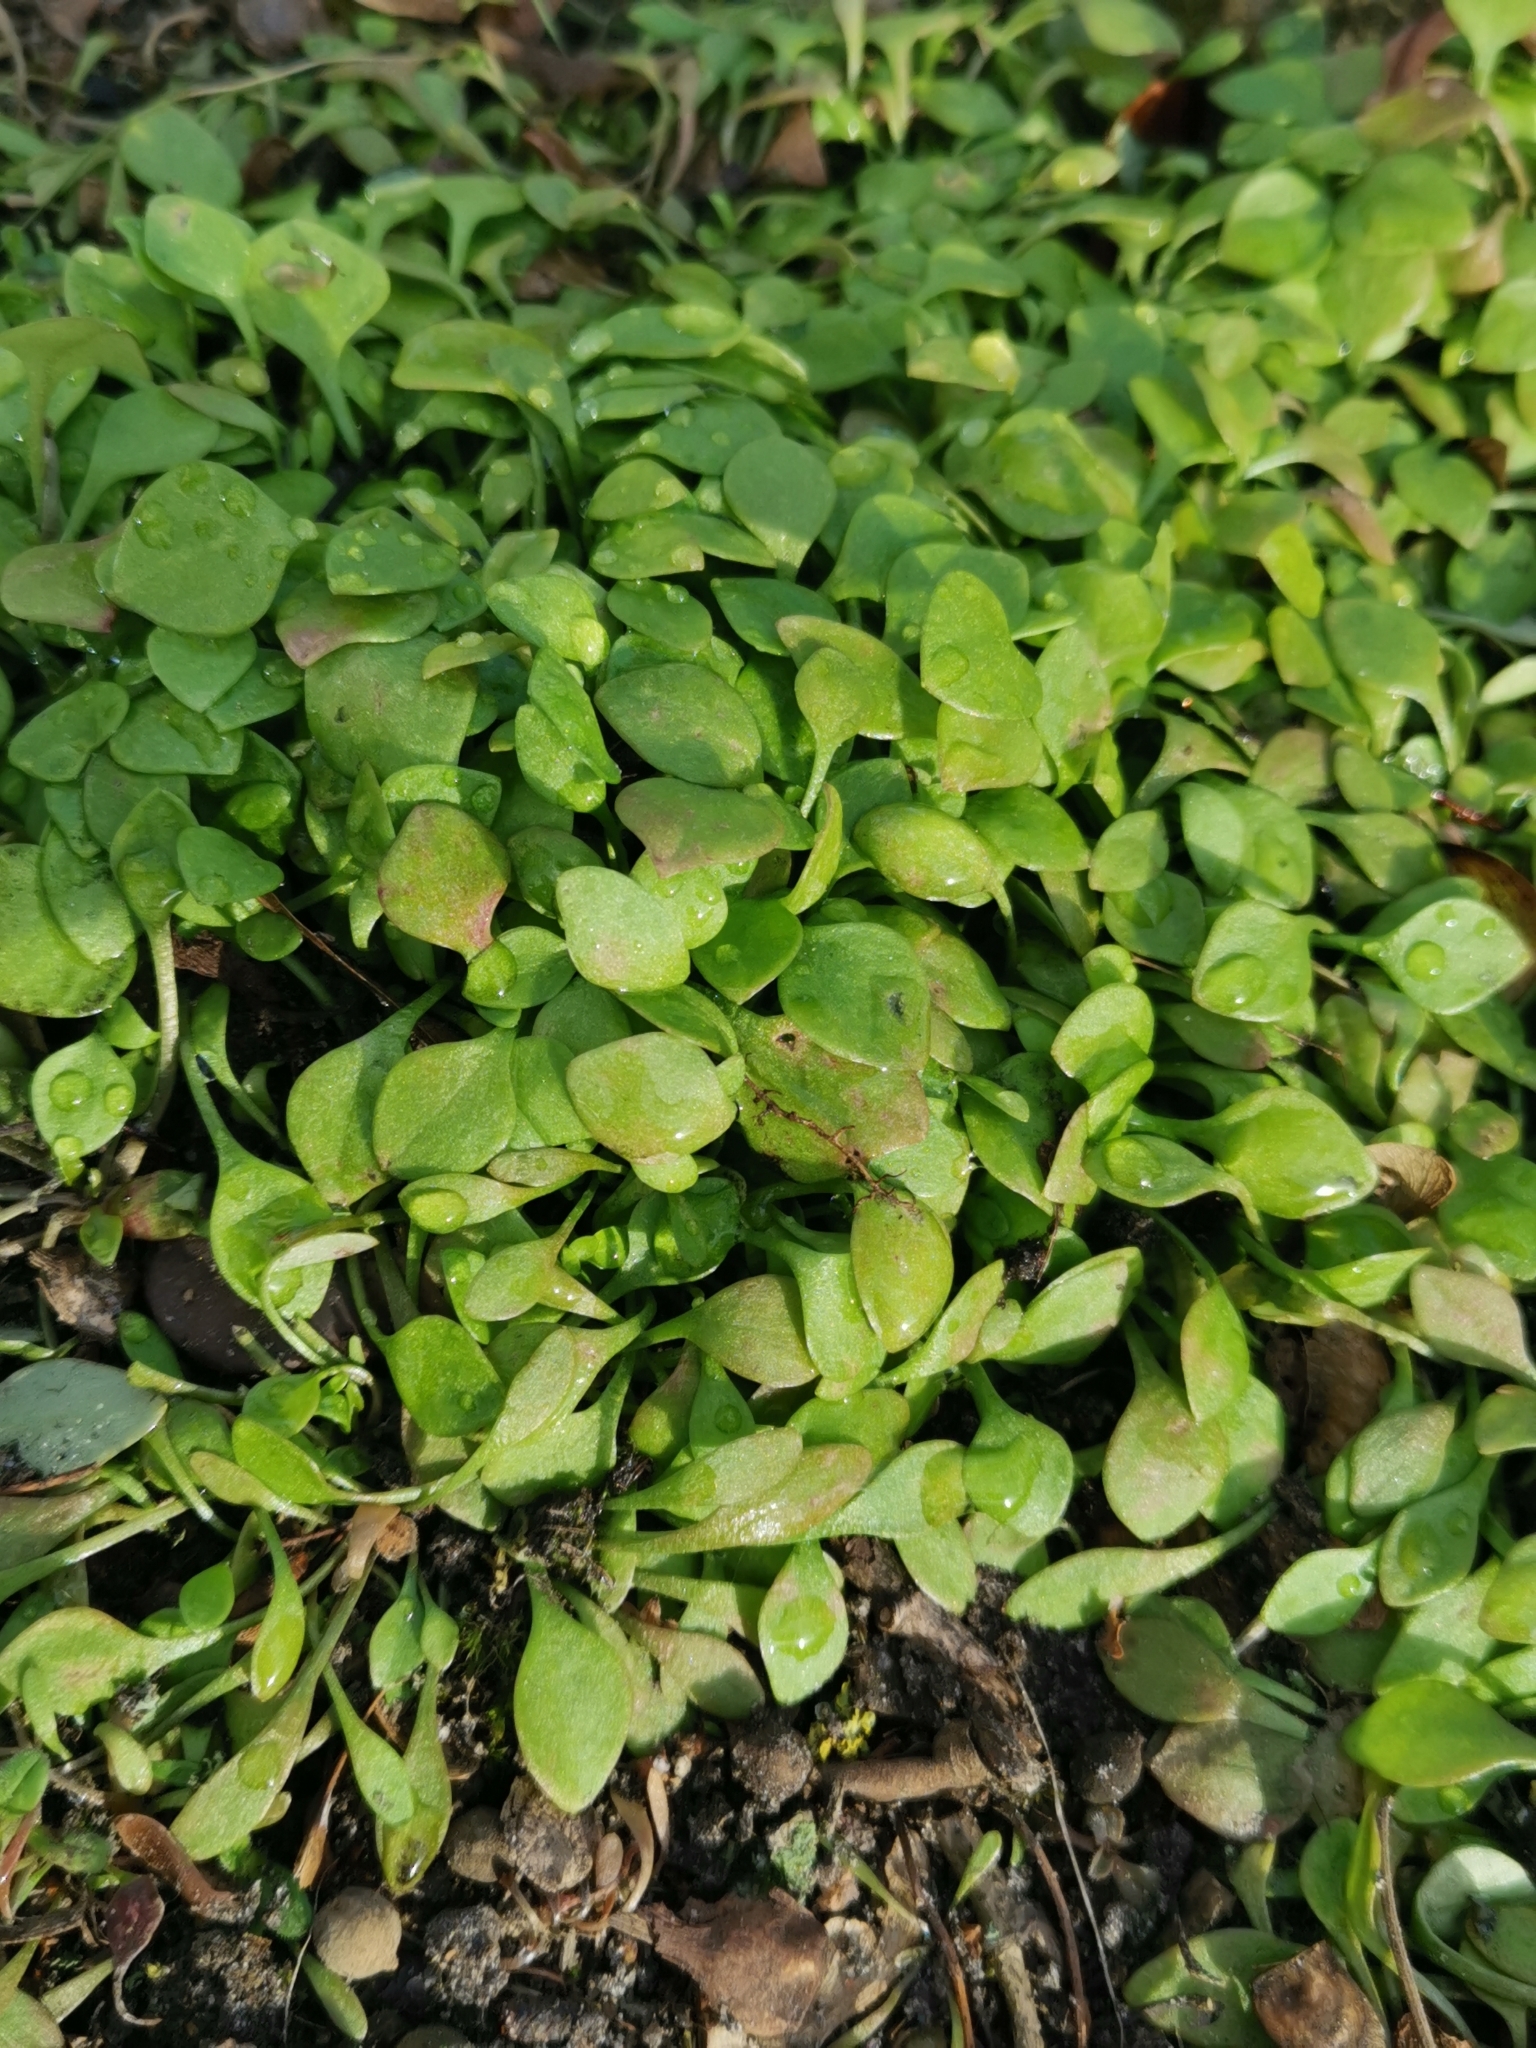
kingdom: Plantae
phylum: Tracheophyta
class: Magnoliopsida
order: Caryophyllales
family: Montiaceae
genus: Claytonia
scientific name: Claytonia perfoliata
